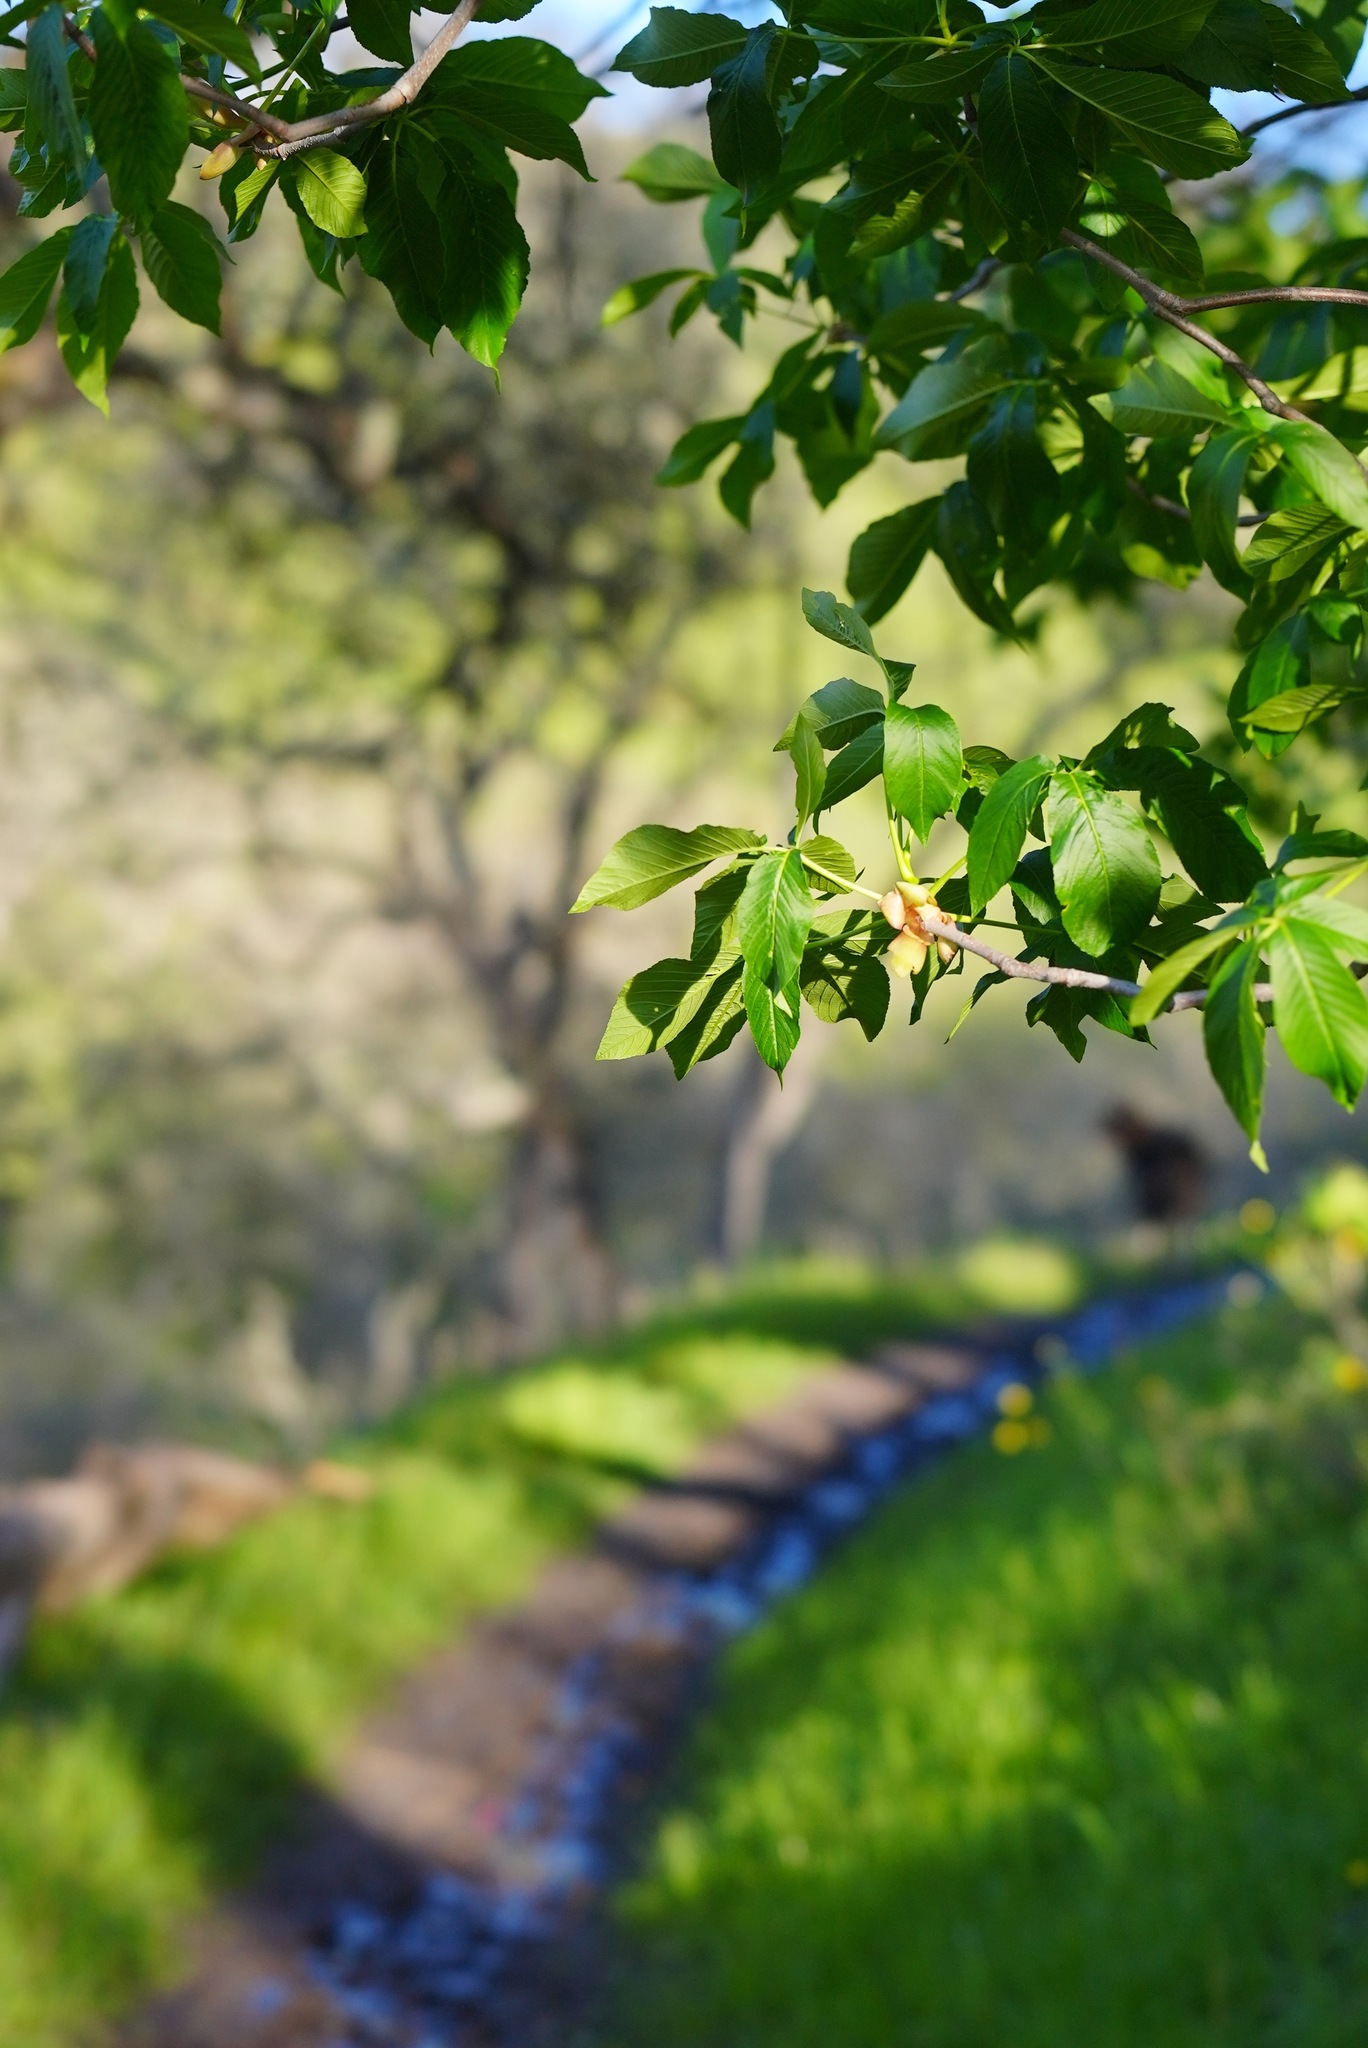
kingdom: Plantae
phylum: Tracheophyta
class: Magnoliopsida
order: Sapindales
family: Sapindaceae
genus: Aesculus
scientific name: Aesculus californica
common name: California buckeye
